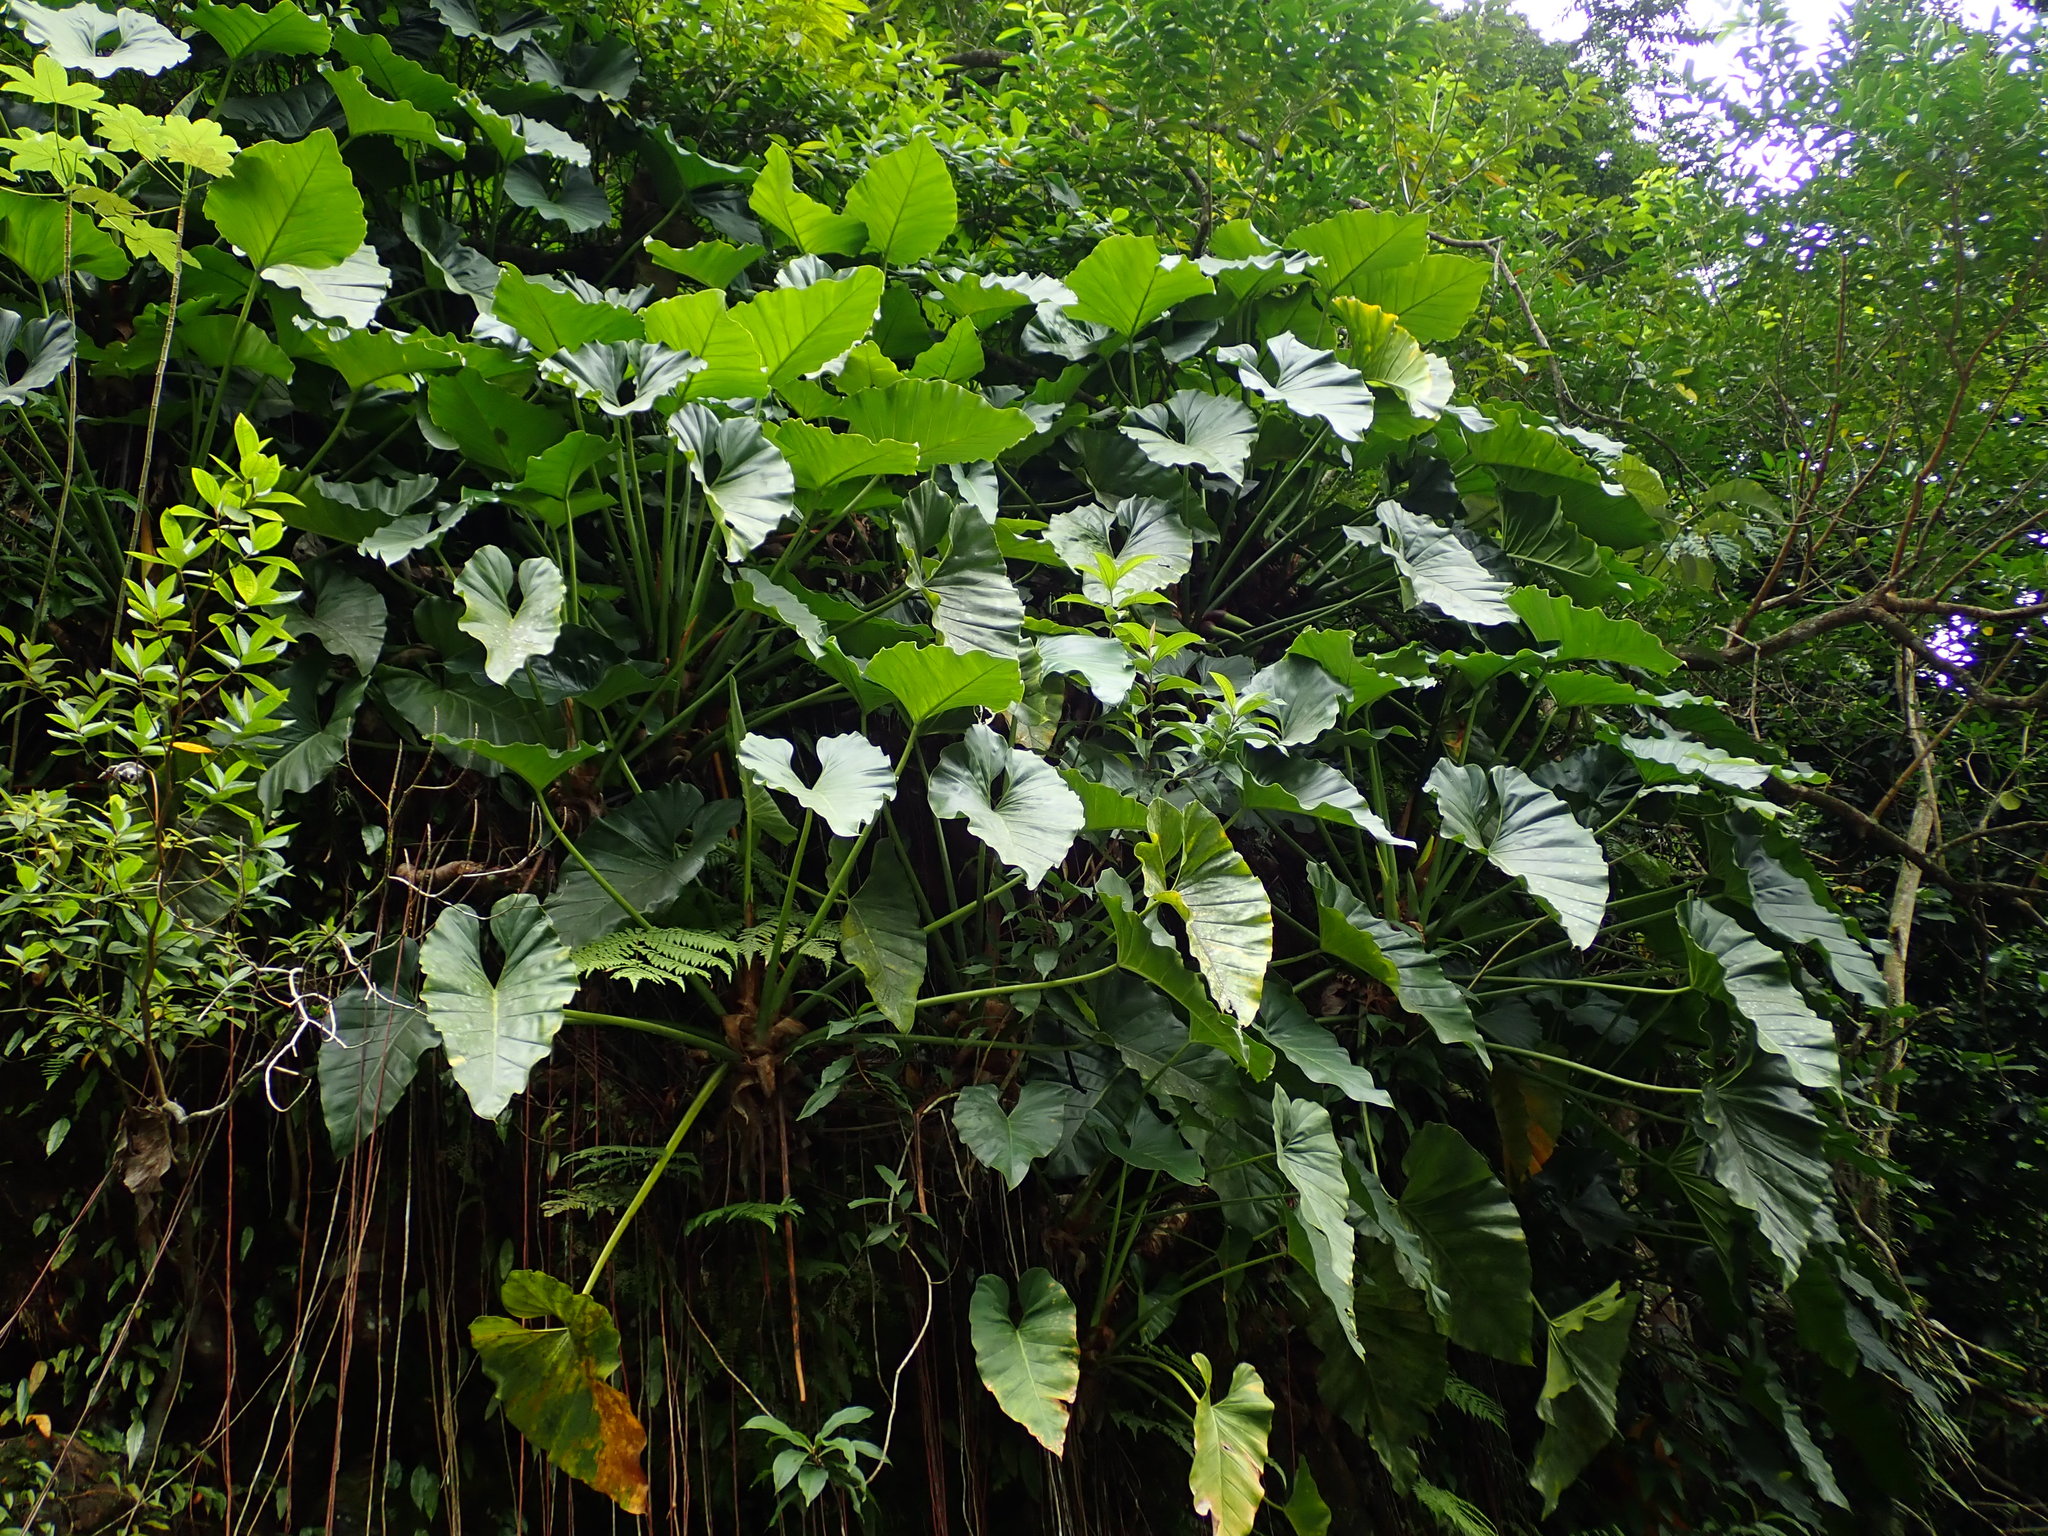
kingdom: Plantae
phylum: Tracheophyta
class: Liliopsida
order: Alismatales
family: Araceae
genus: Philodendron
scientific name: Philodendron giganteum
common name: Giant philodendron
